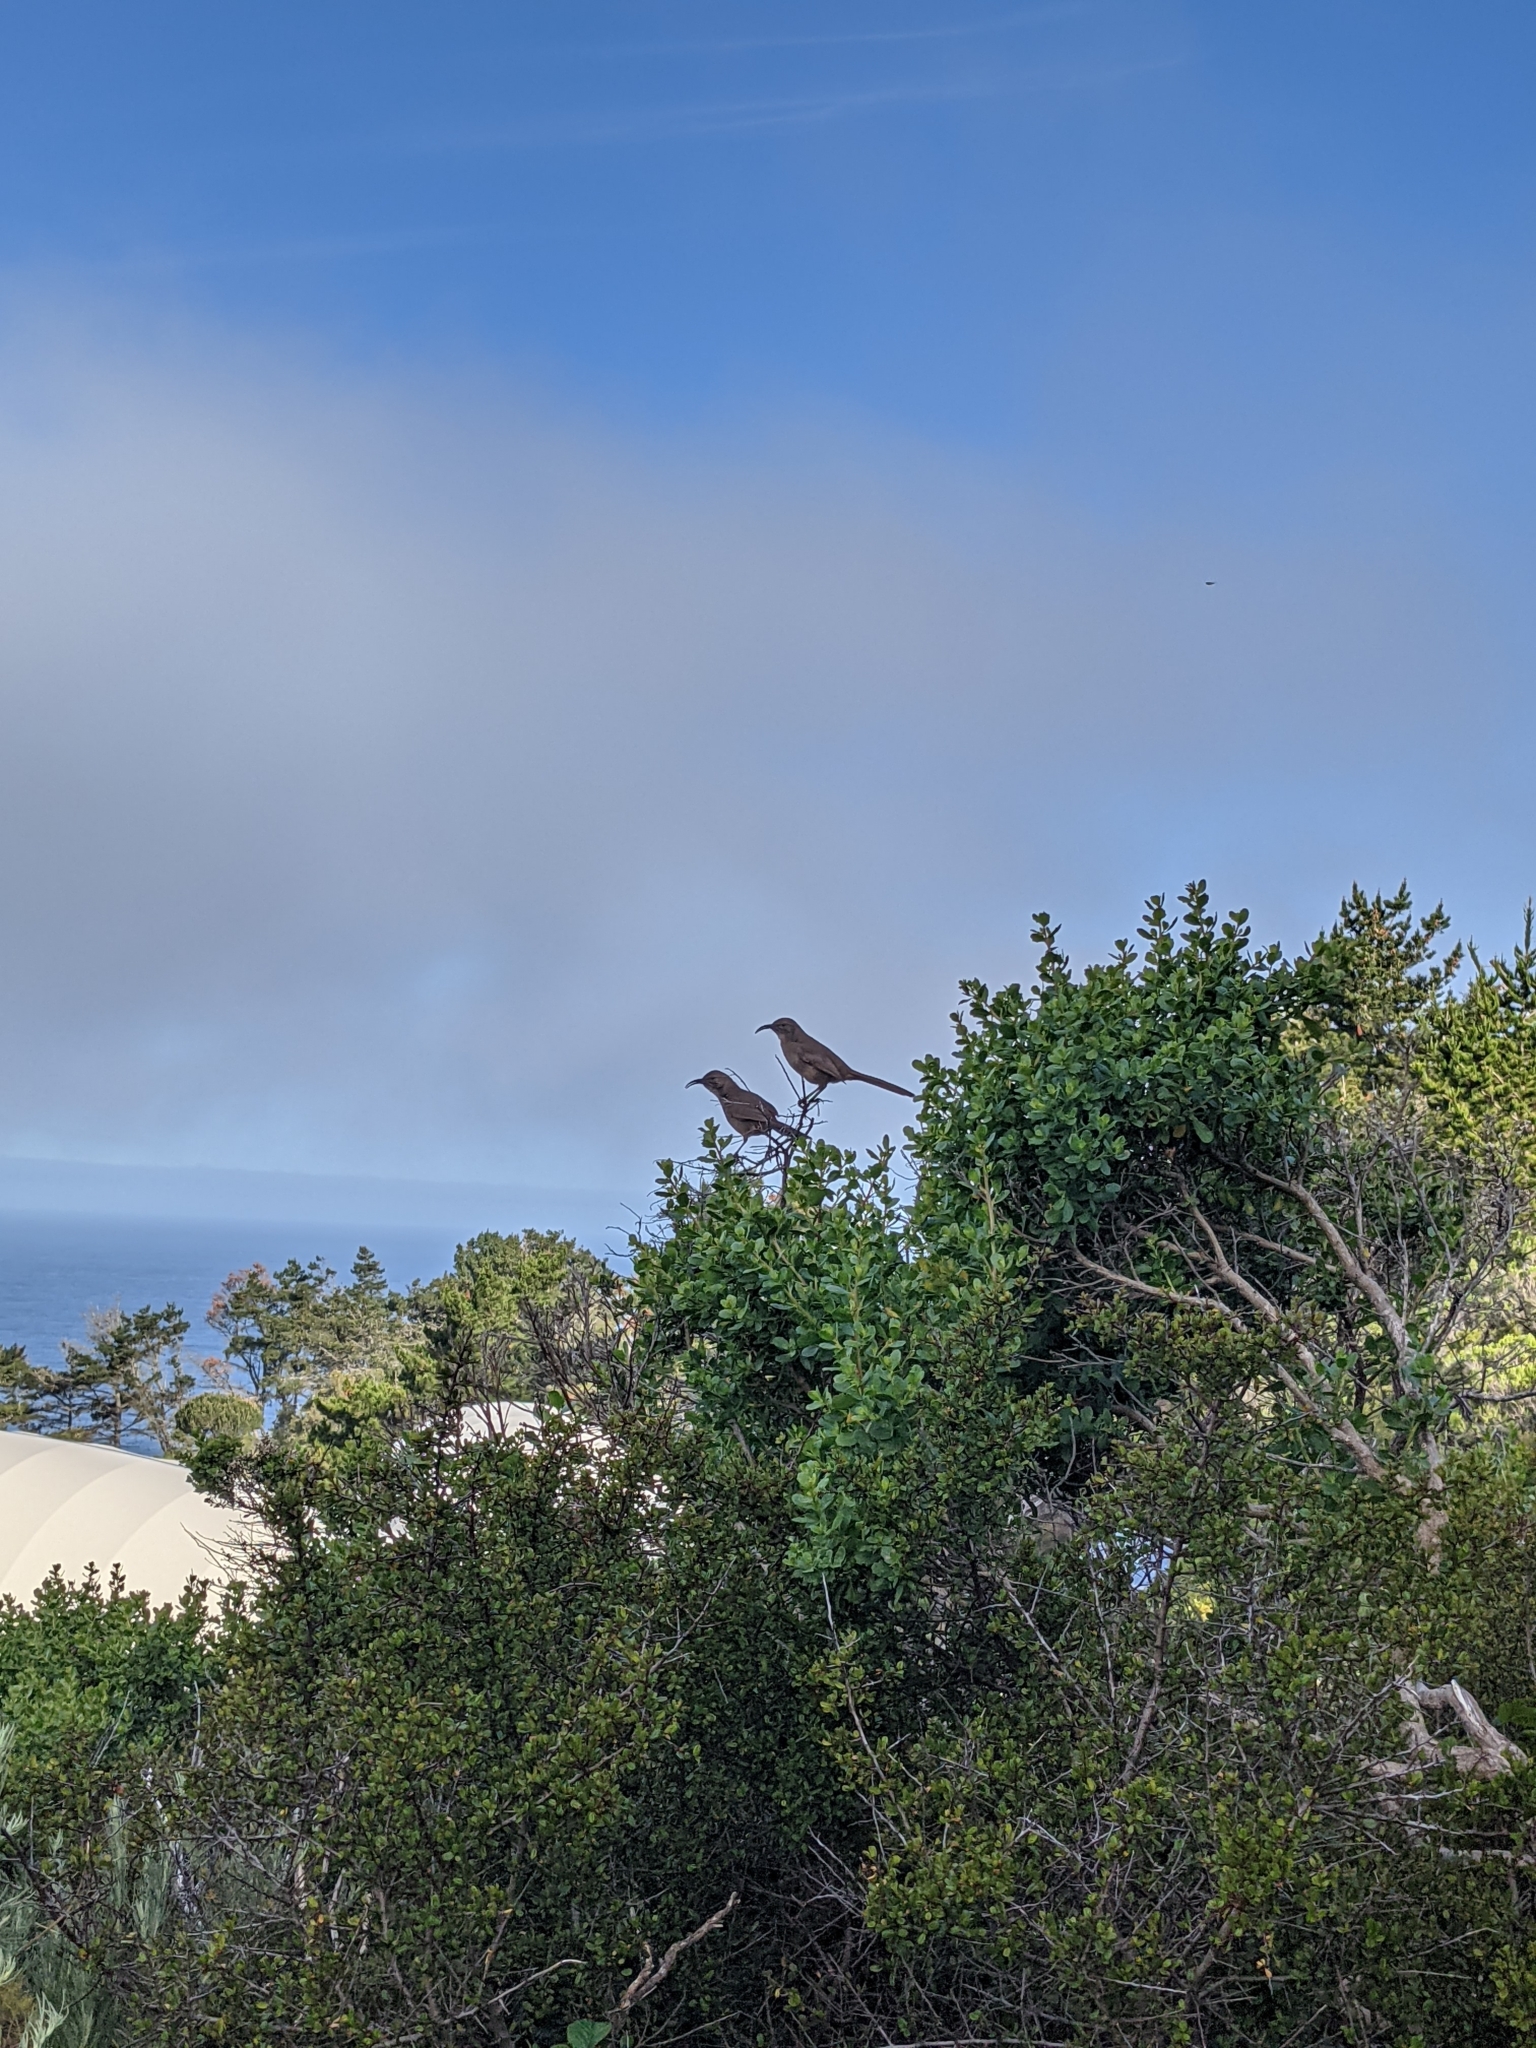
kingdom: Animalia
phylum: Chordata
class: Aves
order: Passeriformes
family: Mimidae
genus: Toxostoma
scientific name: Toxostoma redivivum
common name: California thrasher
